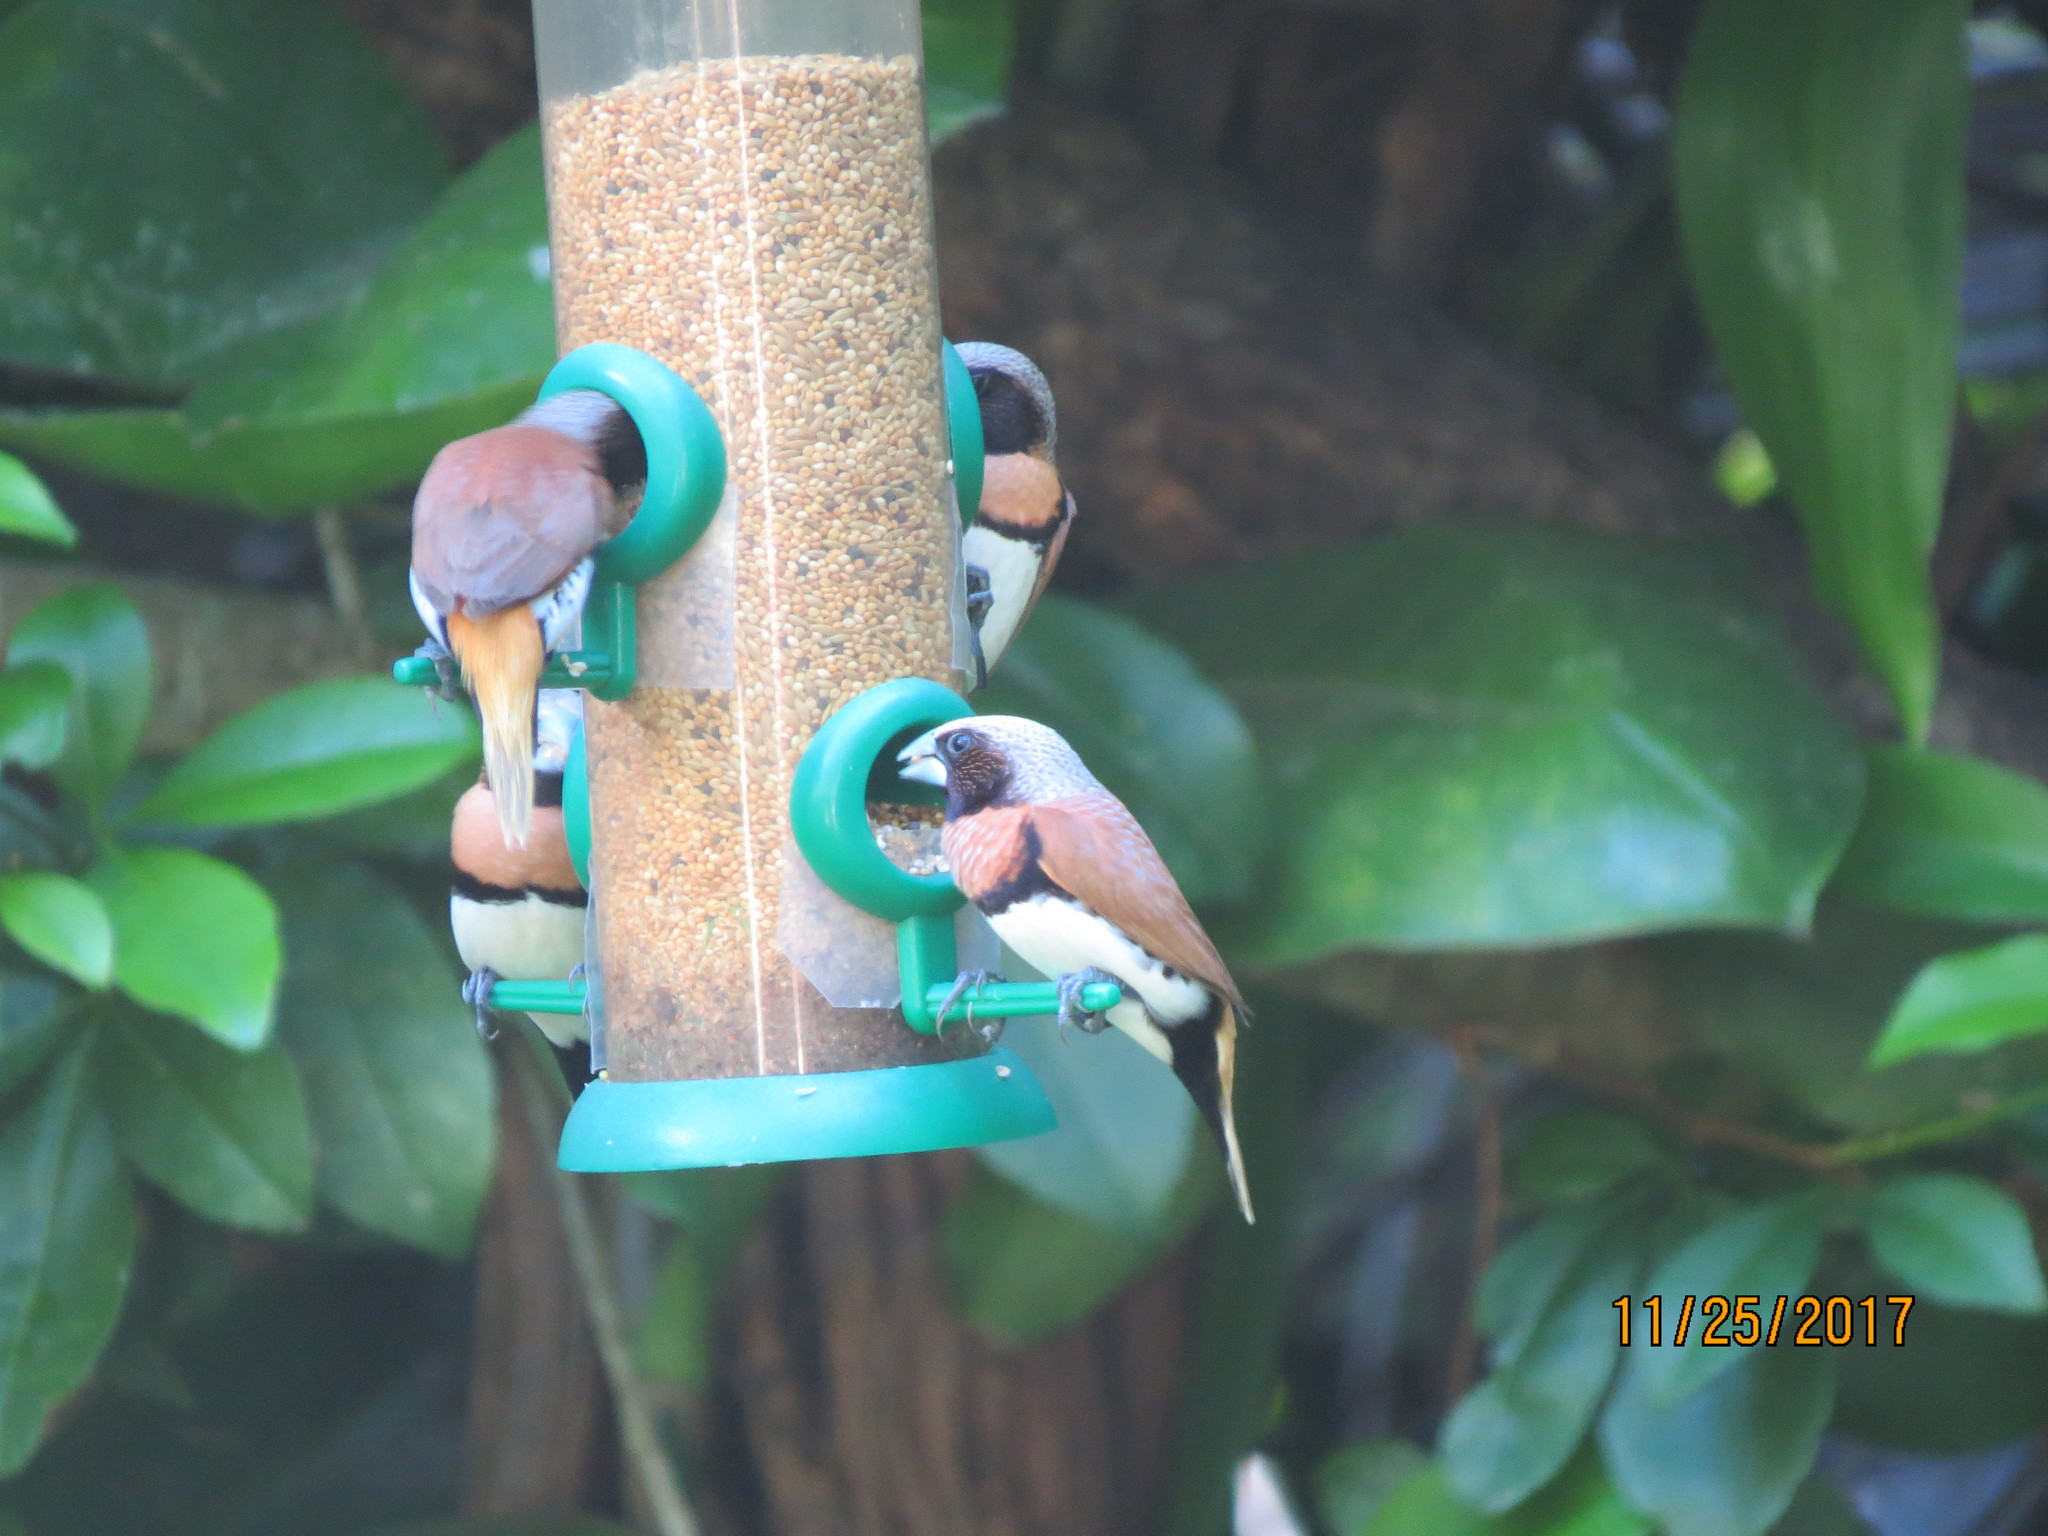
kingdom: Animalia
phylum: Chordata
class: Aves
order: Passeriformes
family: Estrildidae
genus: Lonchura
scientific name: Lonchura castaneothorax
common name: Chestnut-breasted mannikin
